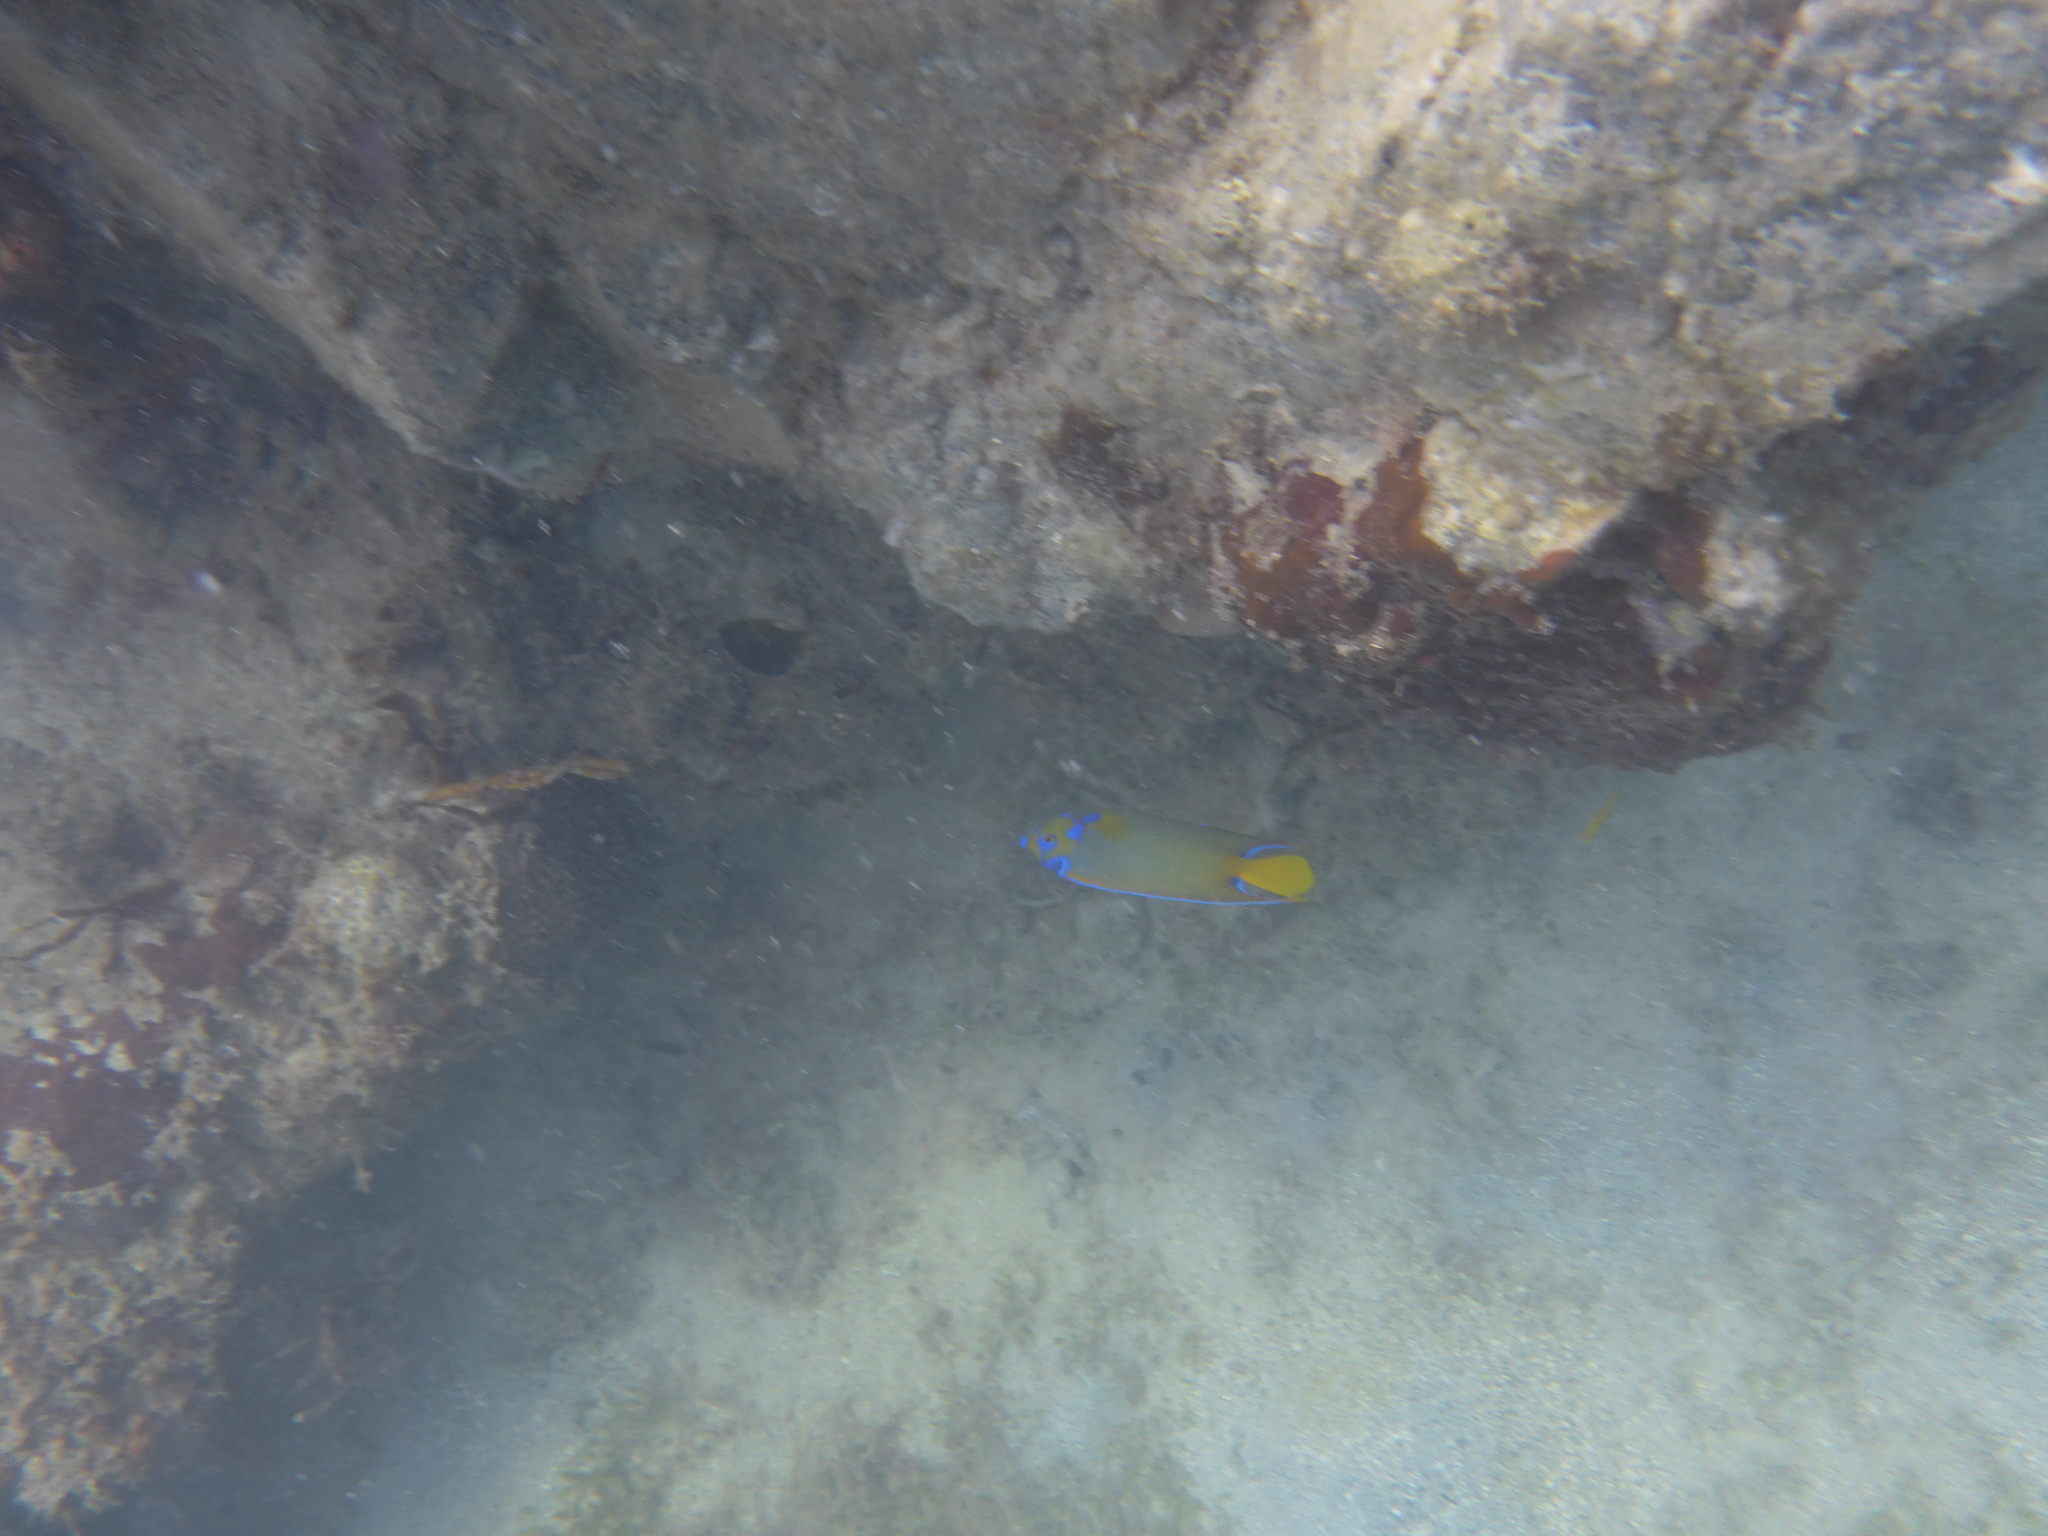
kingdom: Animalia
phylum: Chordata
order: Perciformes
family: Pomacanthidae
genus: Holacanthus
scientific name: Holacanthus ciliaris
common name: Queen angelfish
